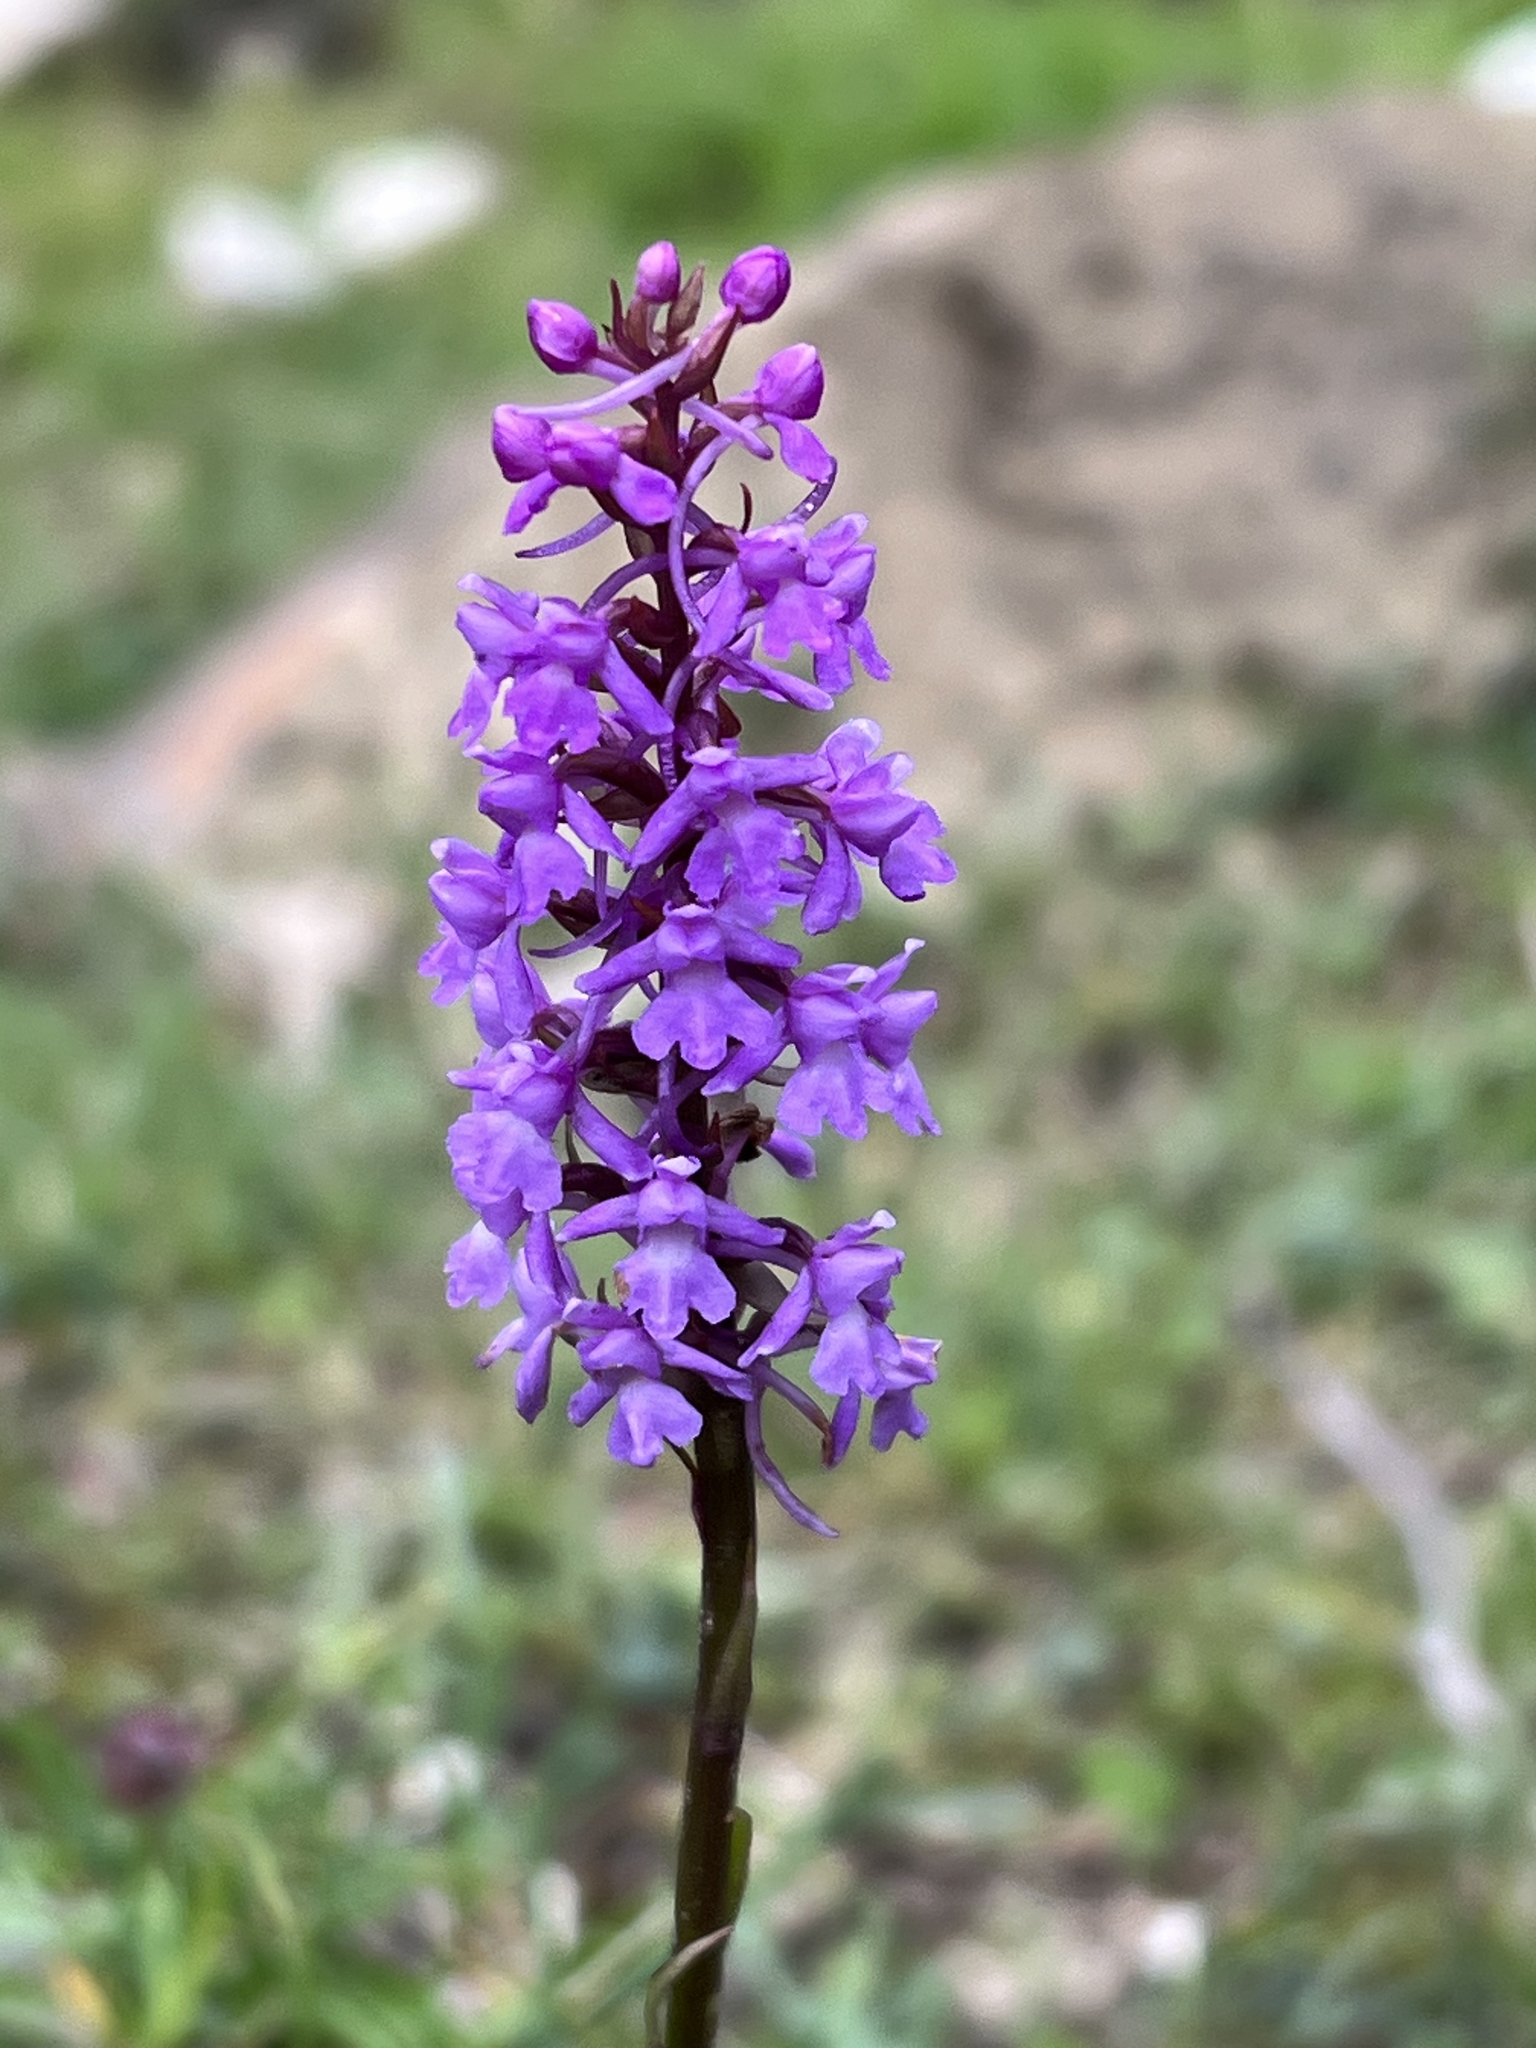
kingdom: Plantae
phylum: Tracheophyta
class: Liliopsida
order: Asparagales
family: Orchidaceae
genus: Gymnadenia
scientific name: Gymnadenia conopsea
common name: Fragrant orchid
